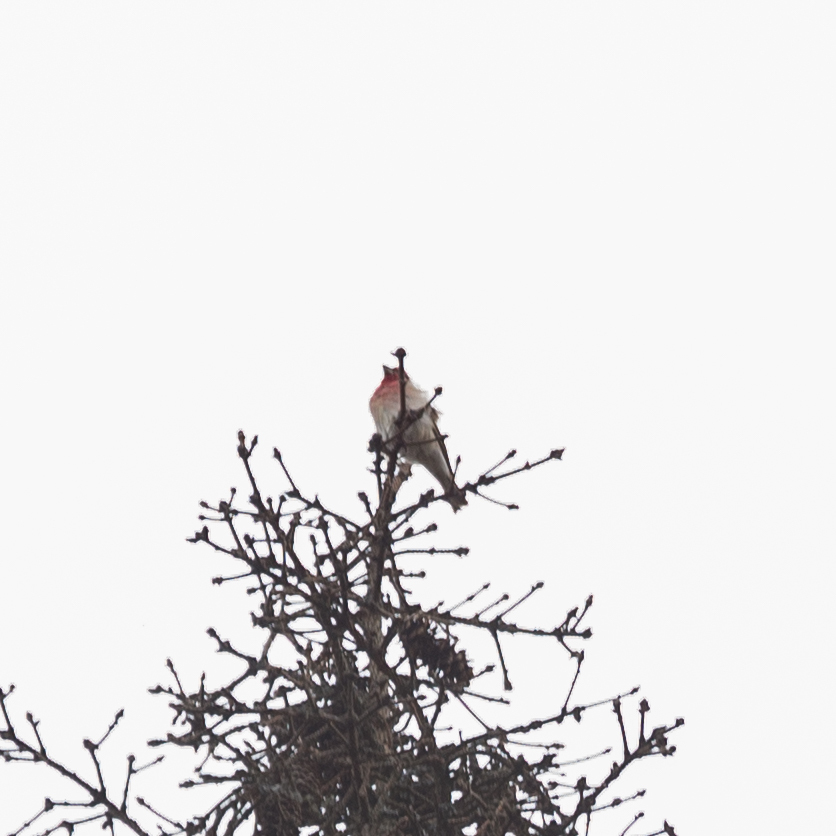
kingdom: Animalia
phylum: Chordata
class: Aves
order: Passeriformes
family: Fringillidae
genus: Carpodacus
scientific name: Carpodacus erythrinus
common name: Common rosefinch
